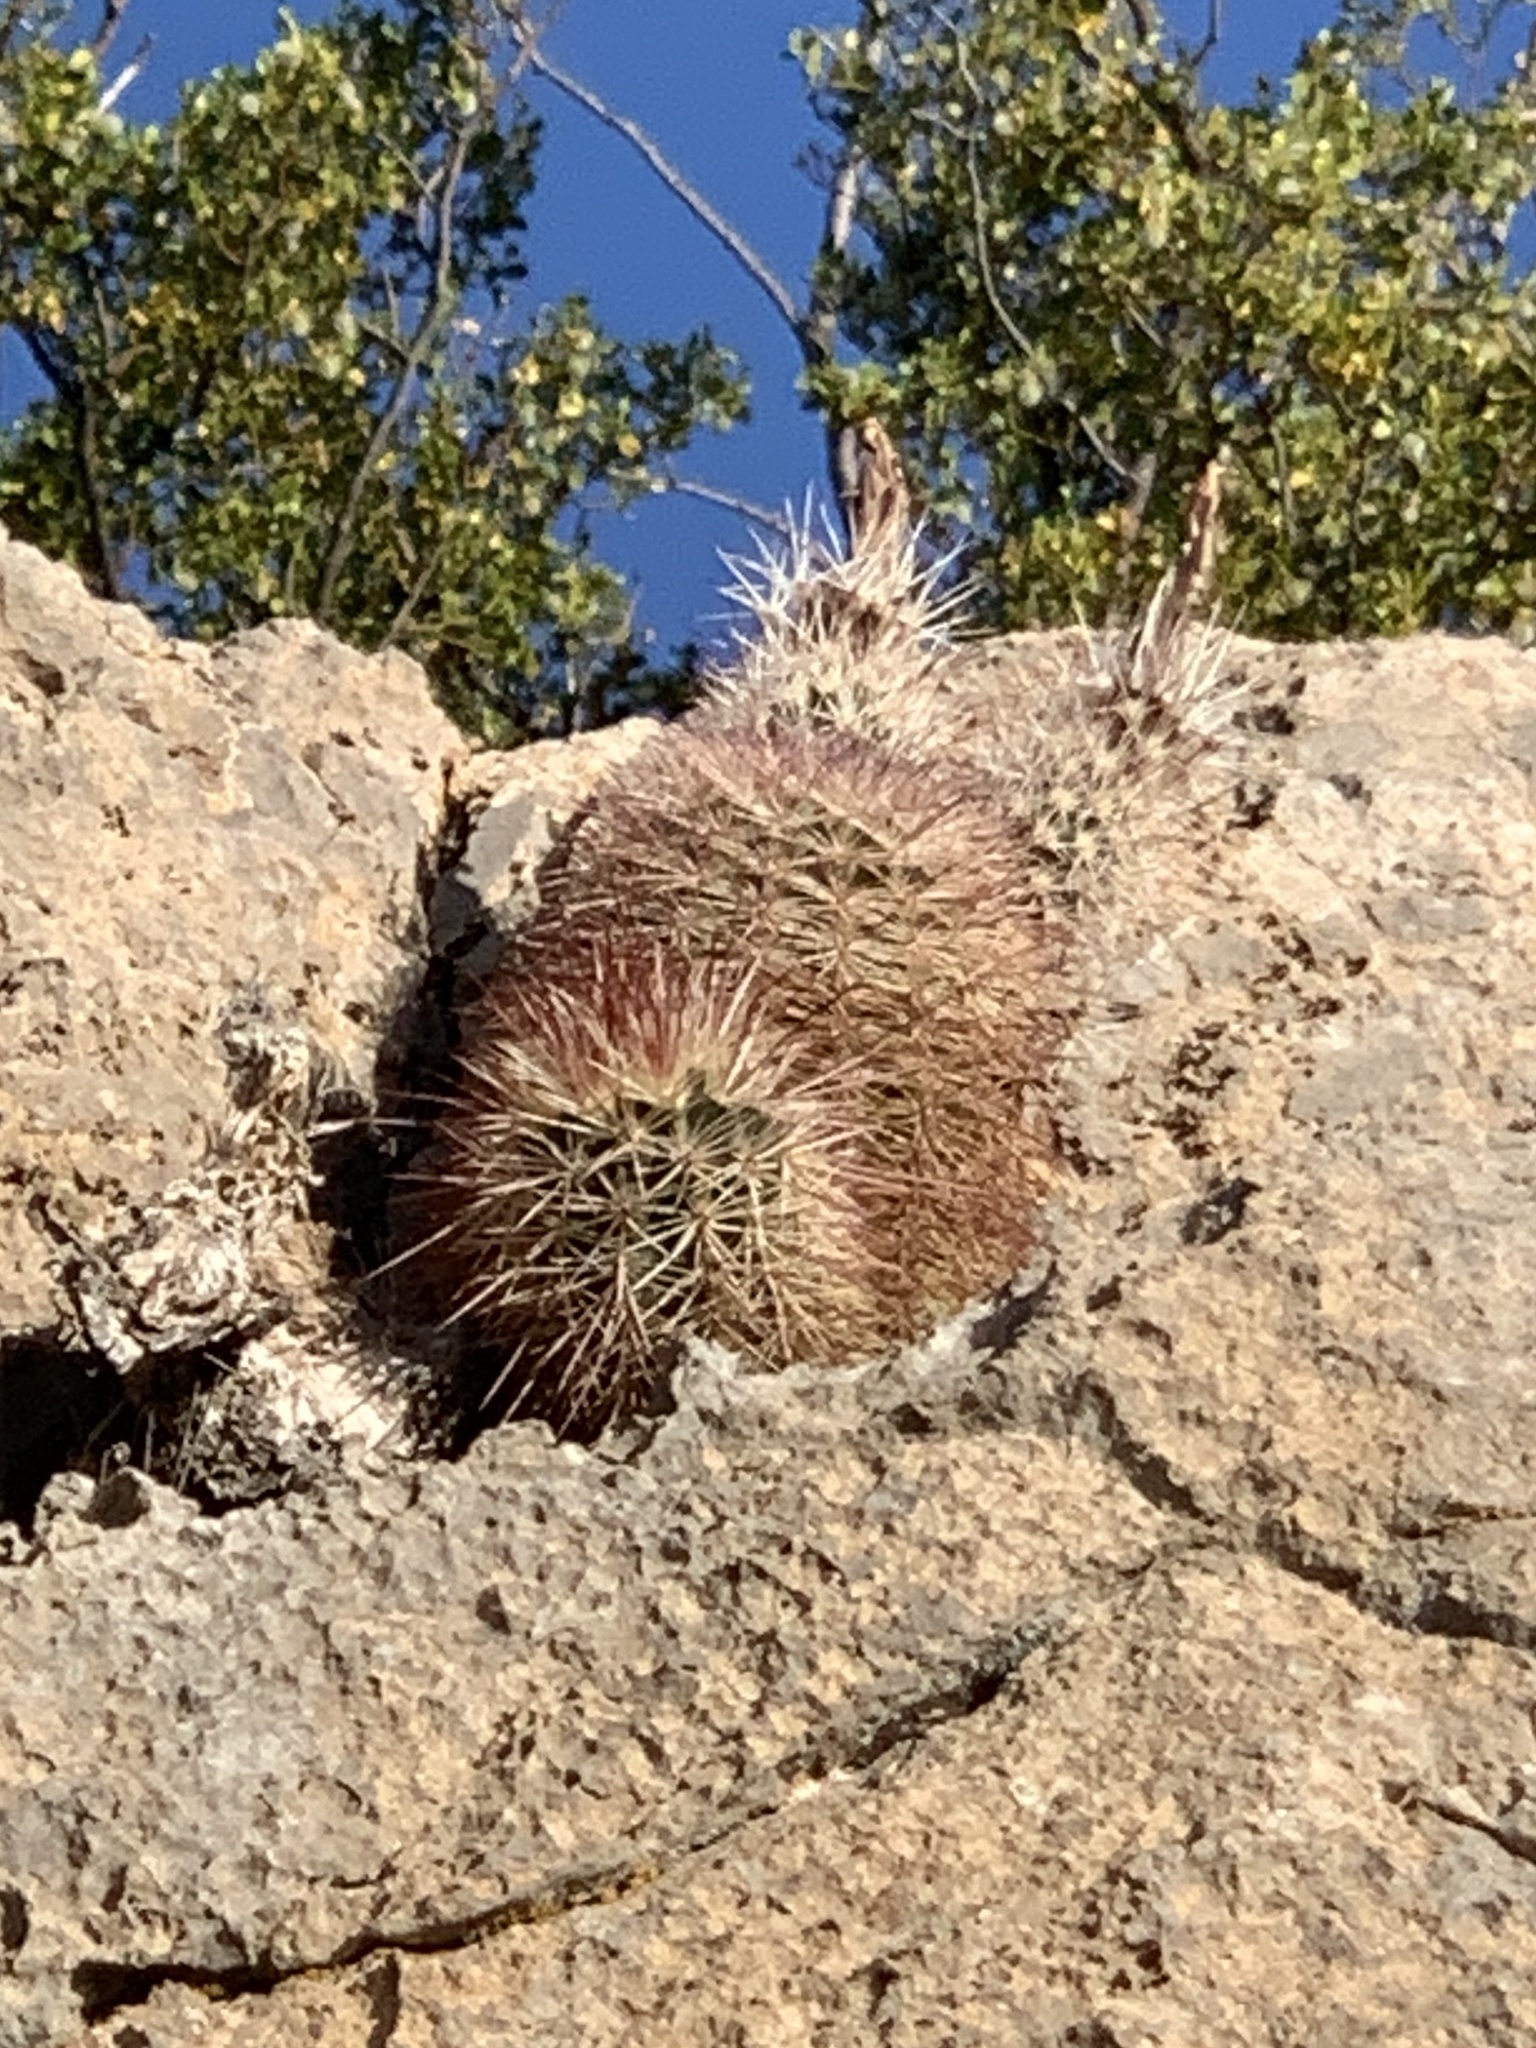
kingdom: Plantae
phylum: Tracheophyta
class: Magnoliopsida
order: Caryophyllales
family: Cactaceae
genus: Echinocereus
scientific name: Echinocereus dasyacanthus
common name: Spiny hedgehog cactus
